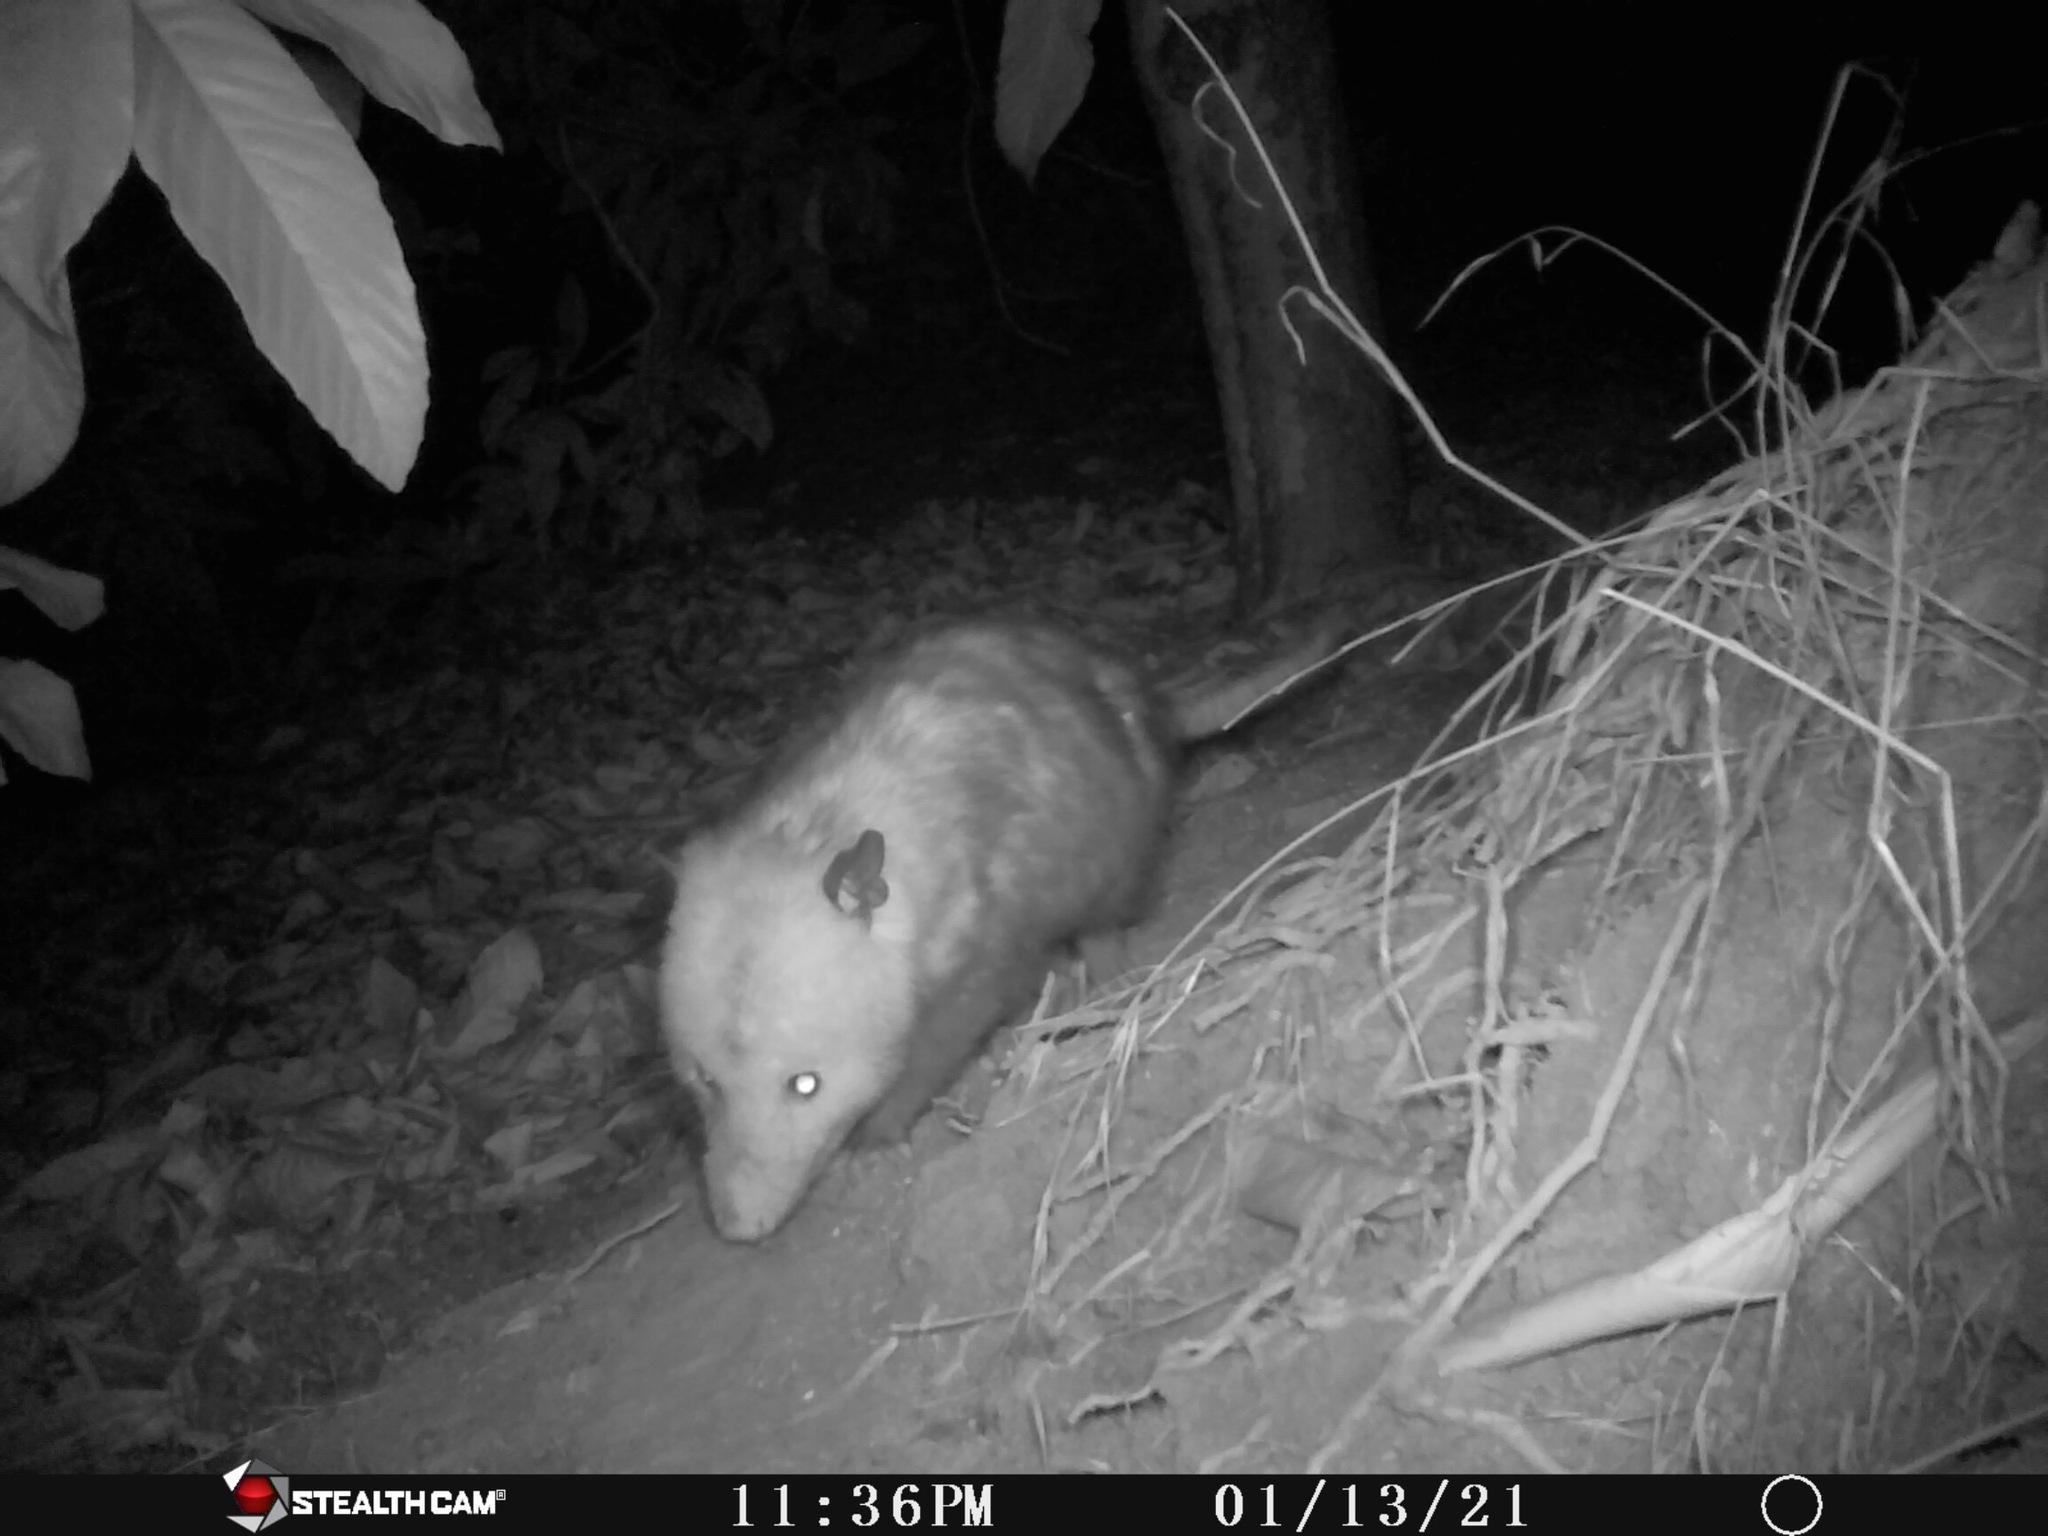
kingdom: Animalia
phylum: Chordata
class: Mammalia
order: Didelphimorphia
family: Didelphidae
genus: Didelphis
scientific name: Didelphis virginiana
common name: Virginia opossum
